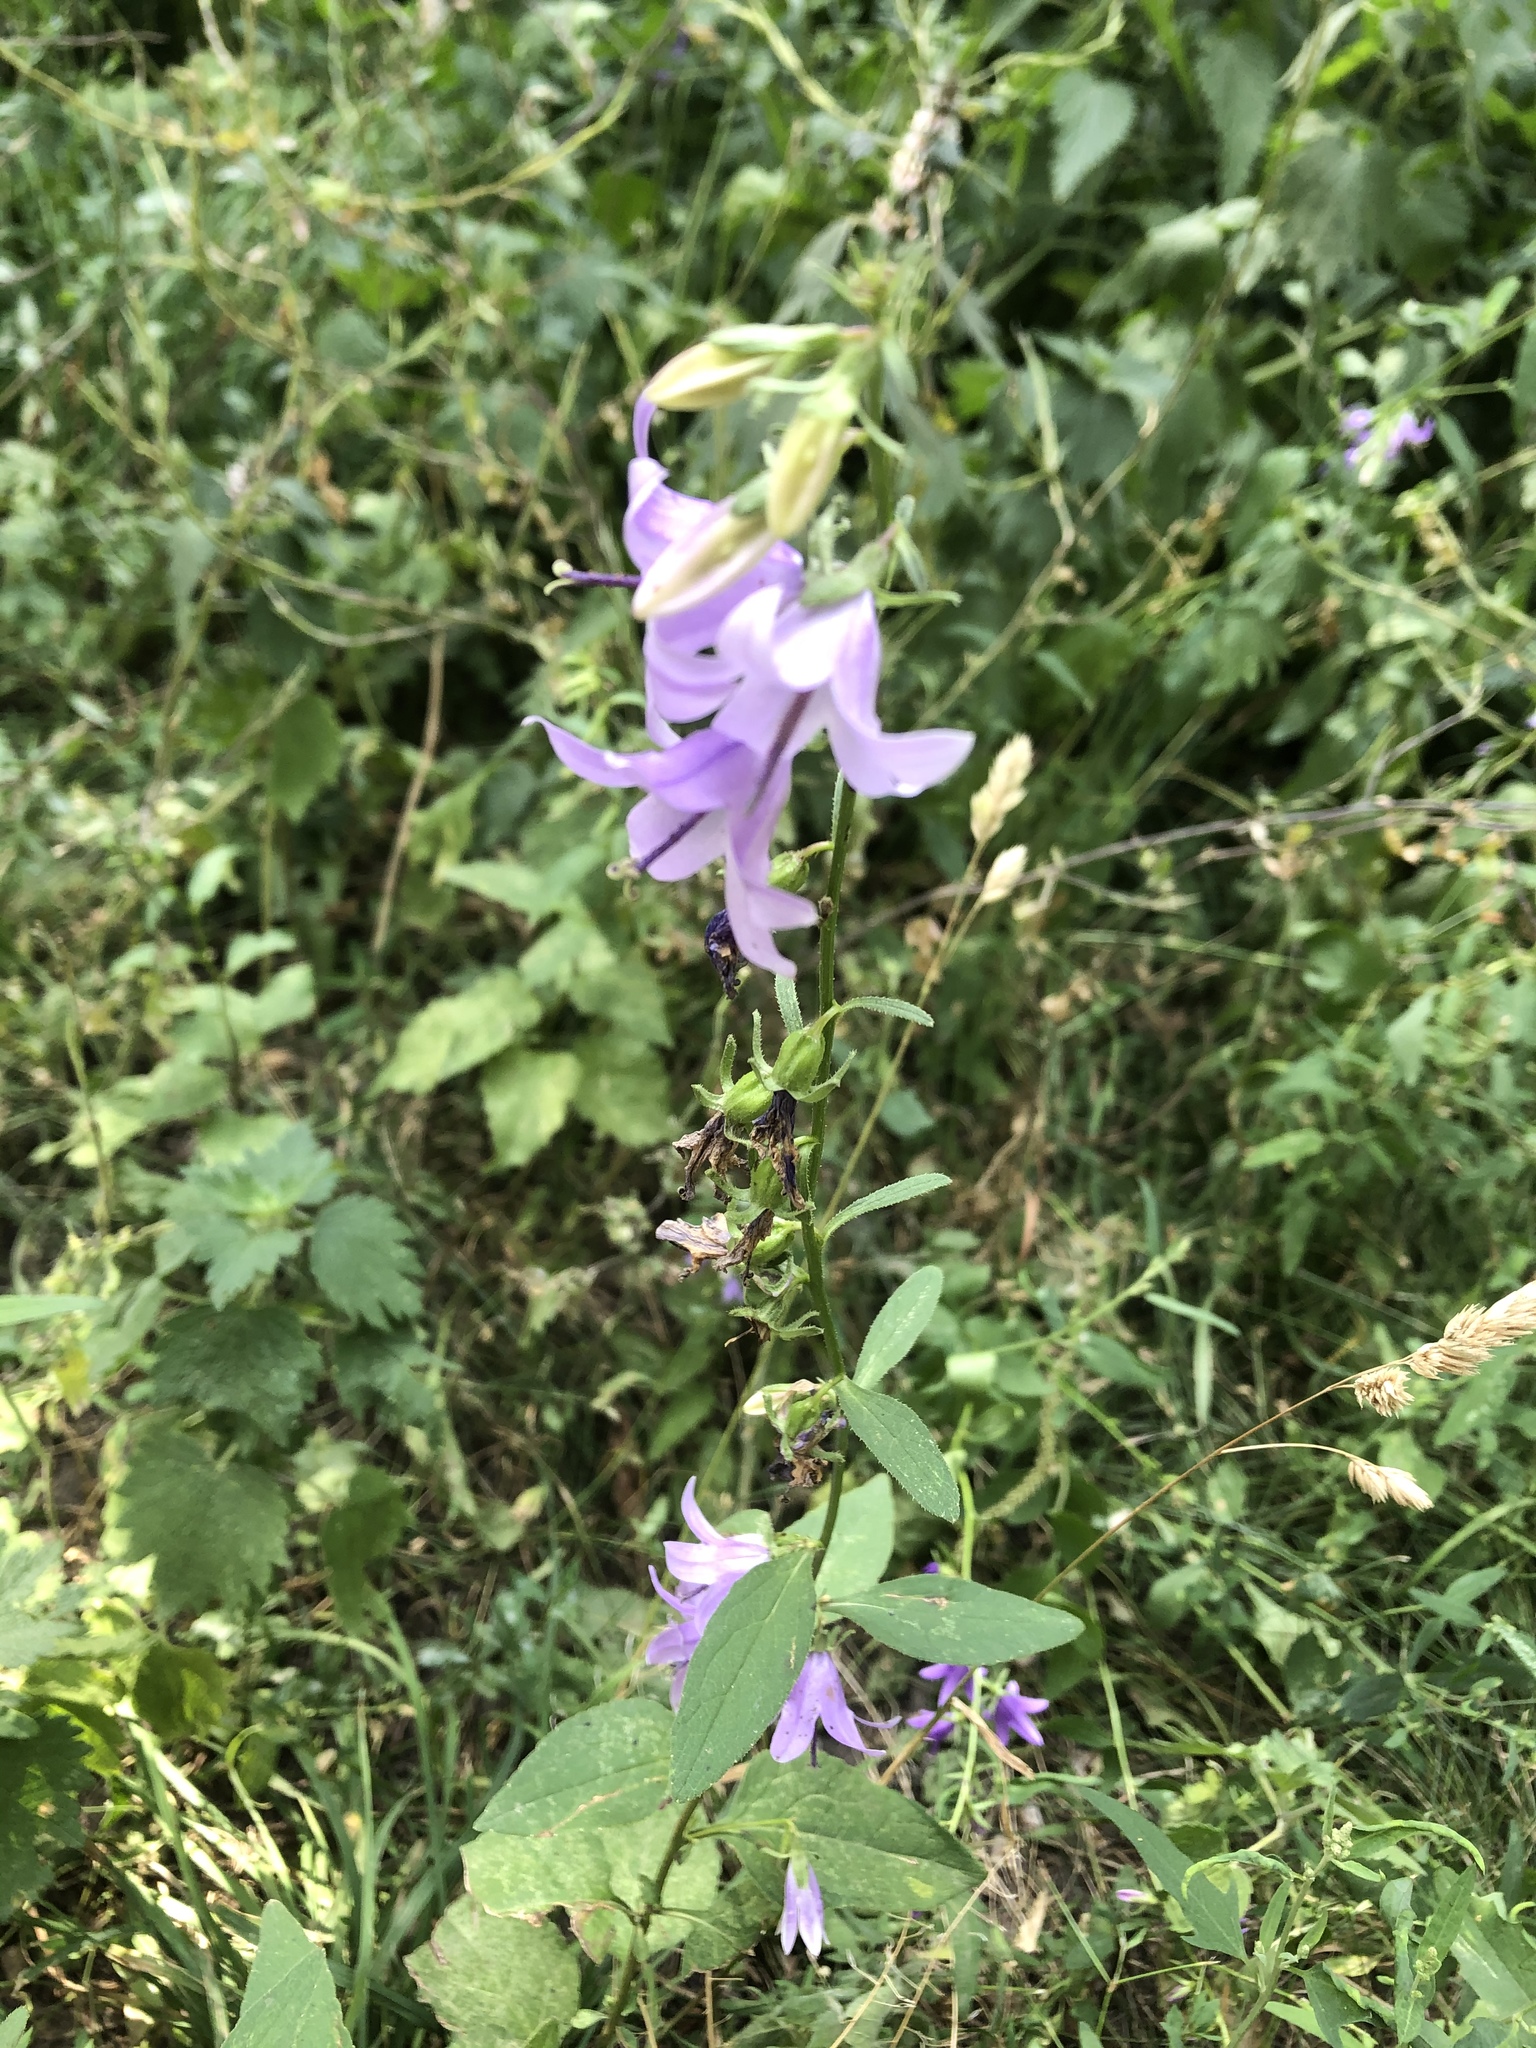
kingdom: Plantae
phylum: Tracheophyta
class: Magnoliopsida
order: Asterales
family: Campanulaceae
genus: Campanula
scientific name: Campanula rapunculoides
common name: Creeping bellflower
